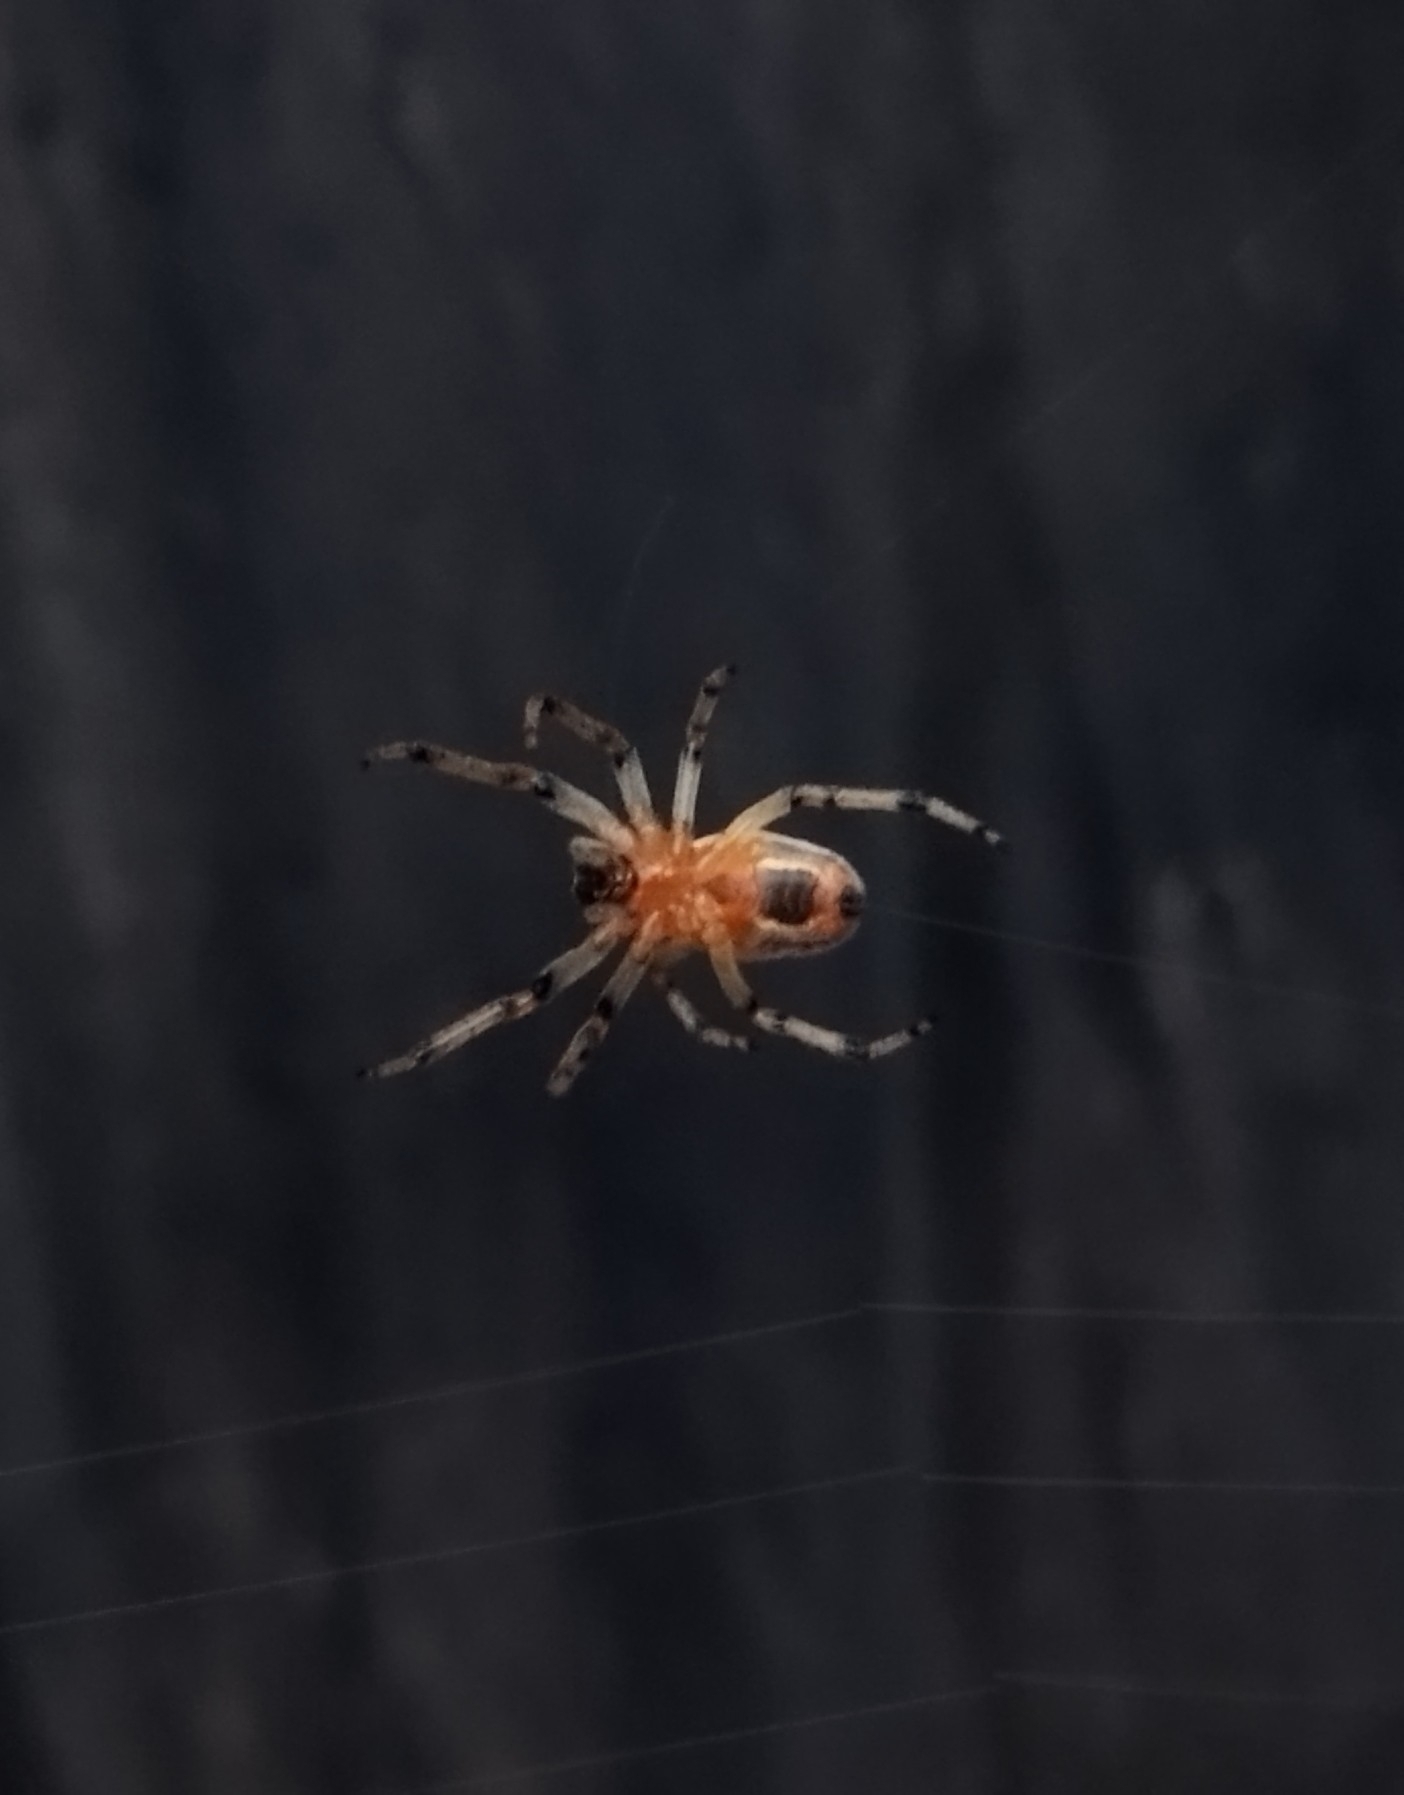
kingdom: Animalia
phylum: Arthropoda
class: Arachnida
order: Araneae
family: Araneidae
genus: Alpaida
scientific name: Alpaida veniliae
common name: Orb weavers
